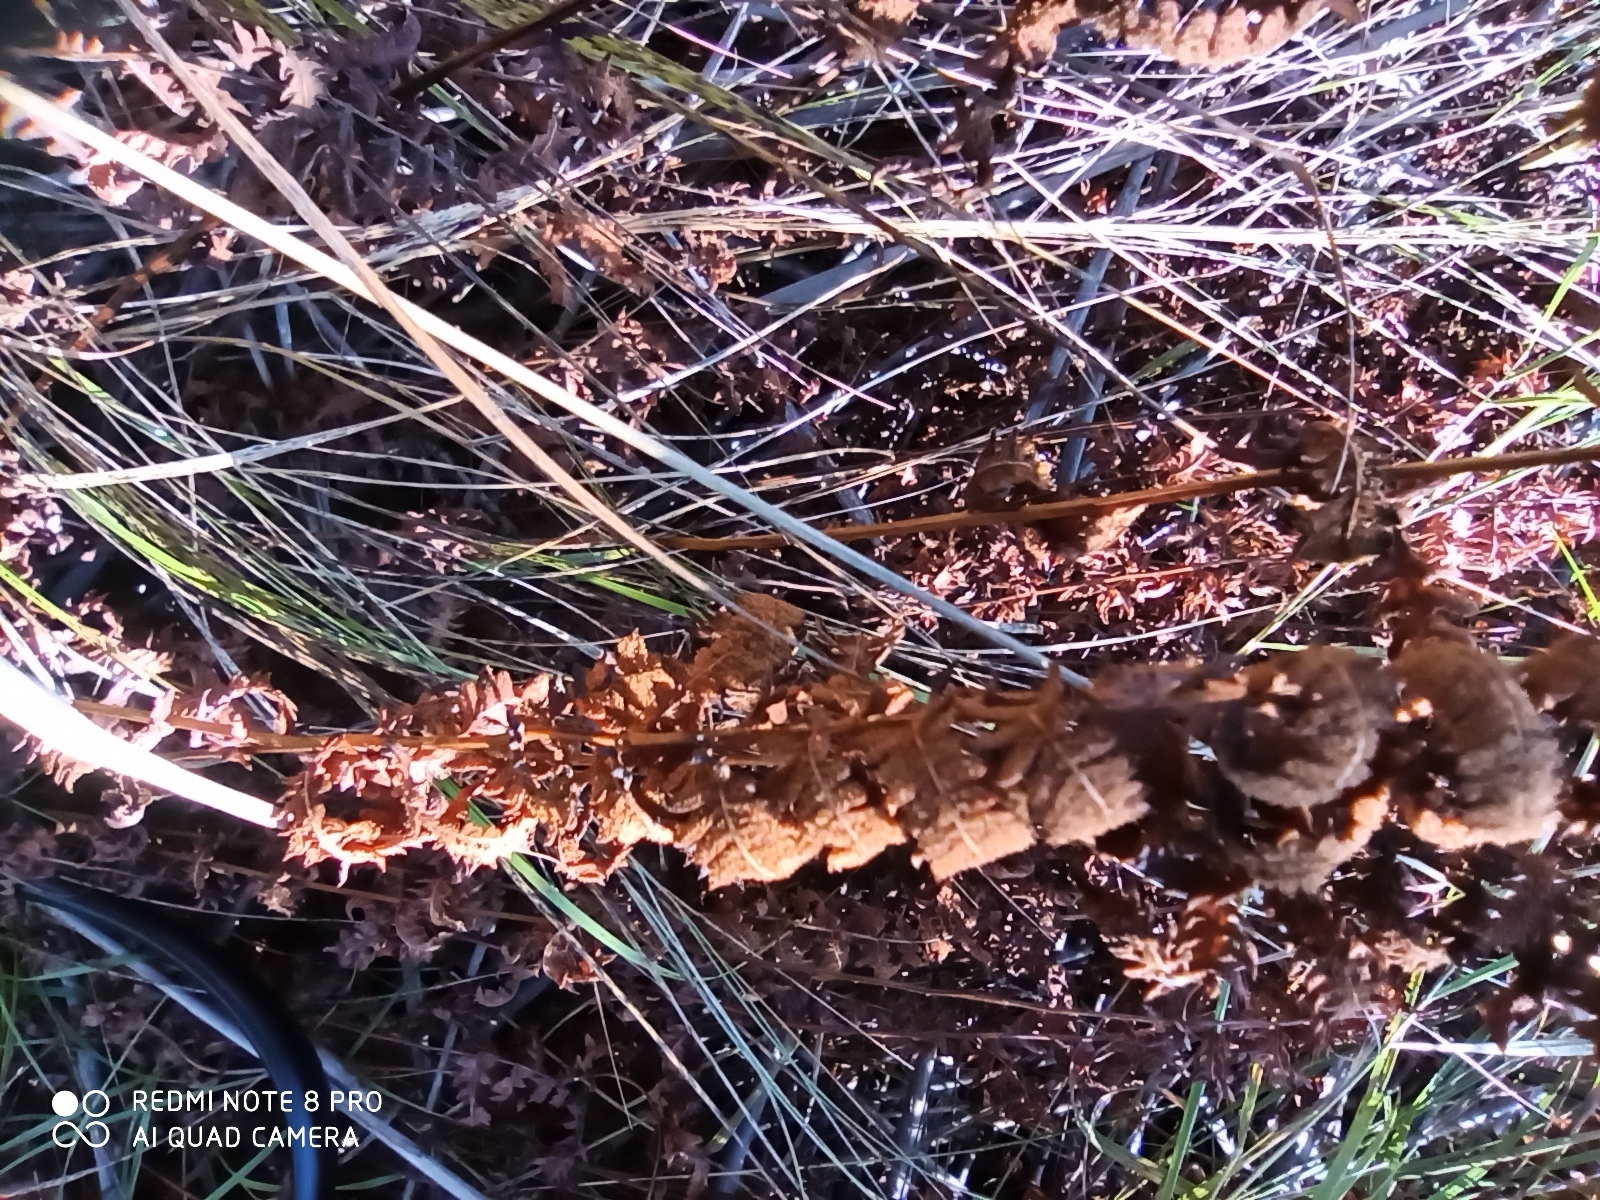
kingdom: Plantae
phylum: Tracheophyta
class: Polypodiopsida
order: Polypodiales
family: Thelypteridaceae
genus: Thelypteris
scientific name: Thelypteris palustris
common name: Marsh fern
